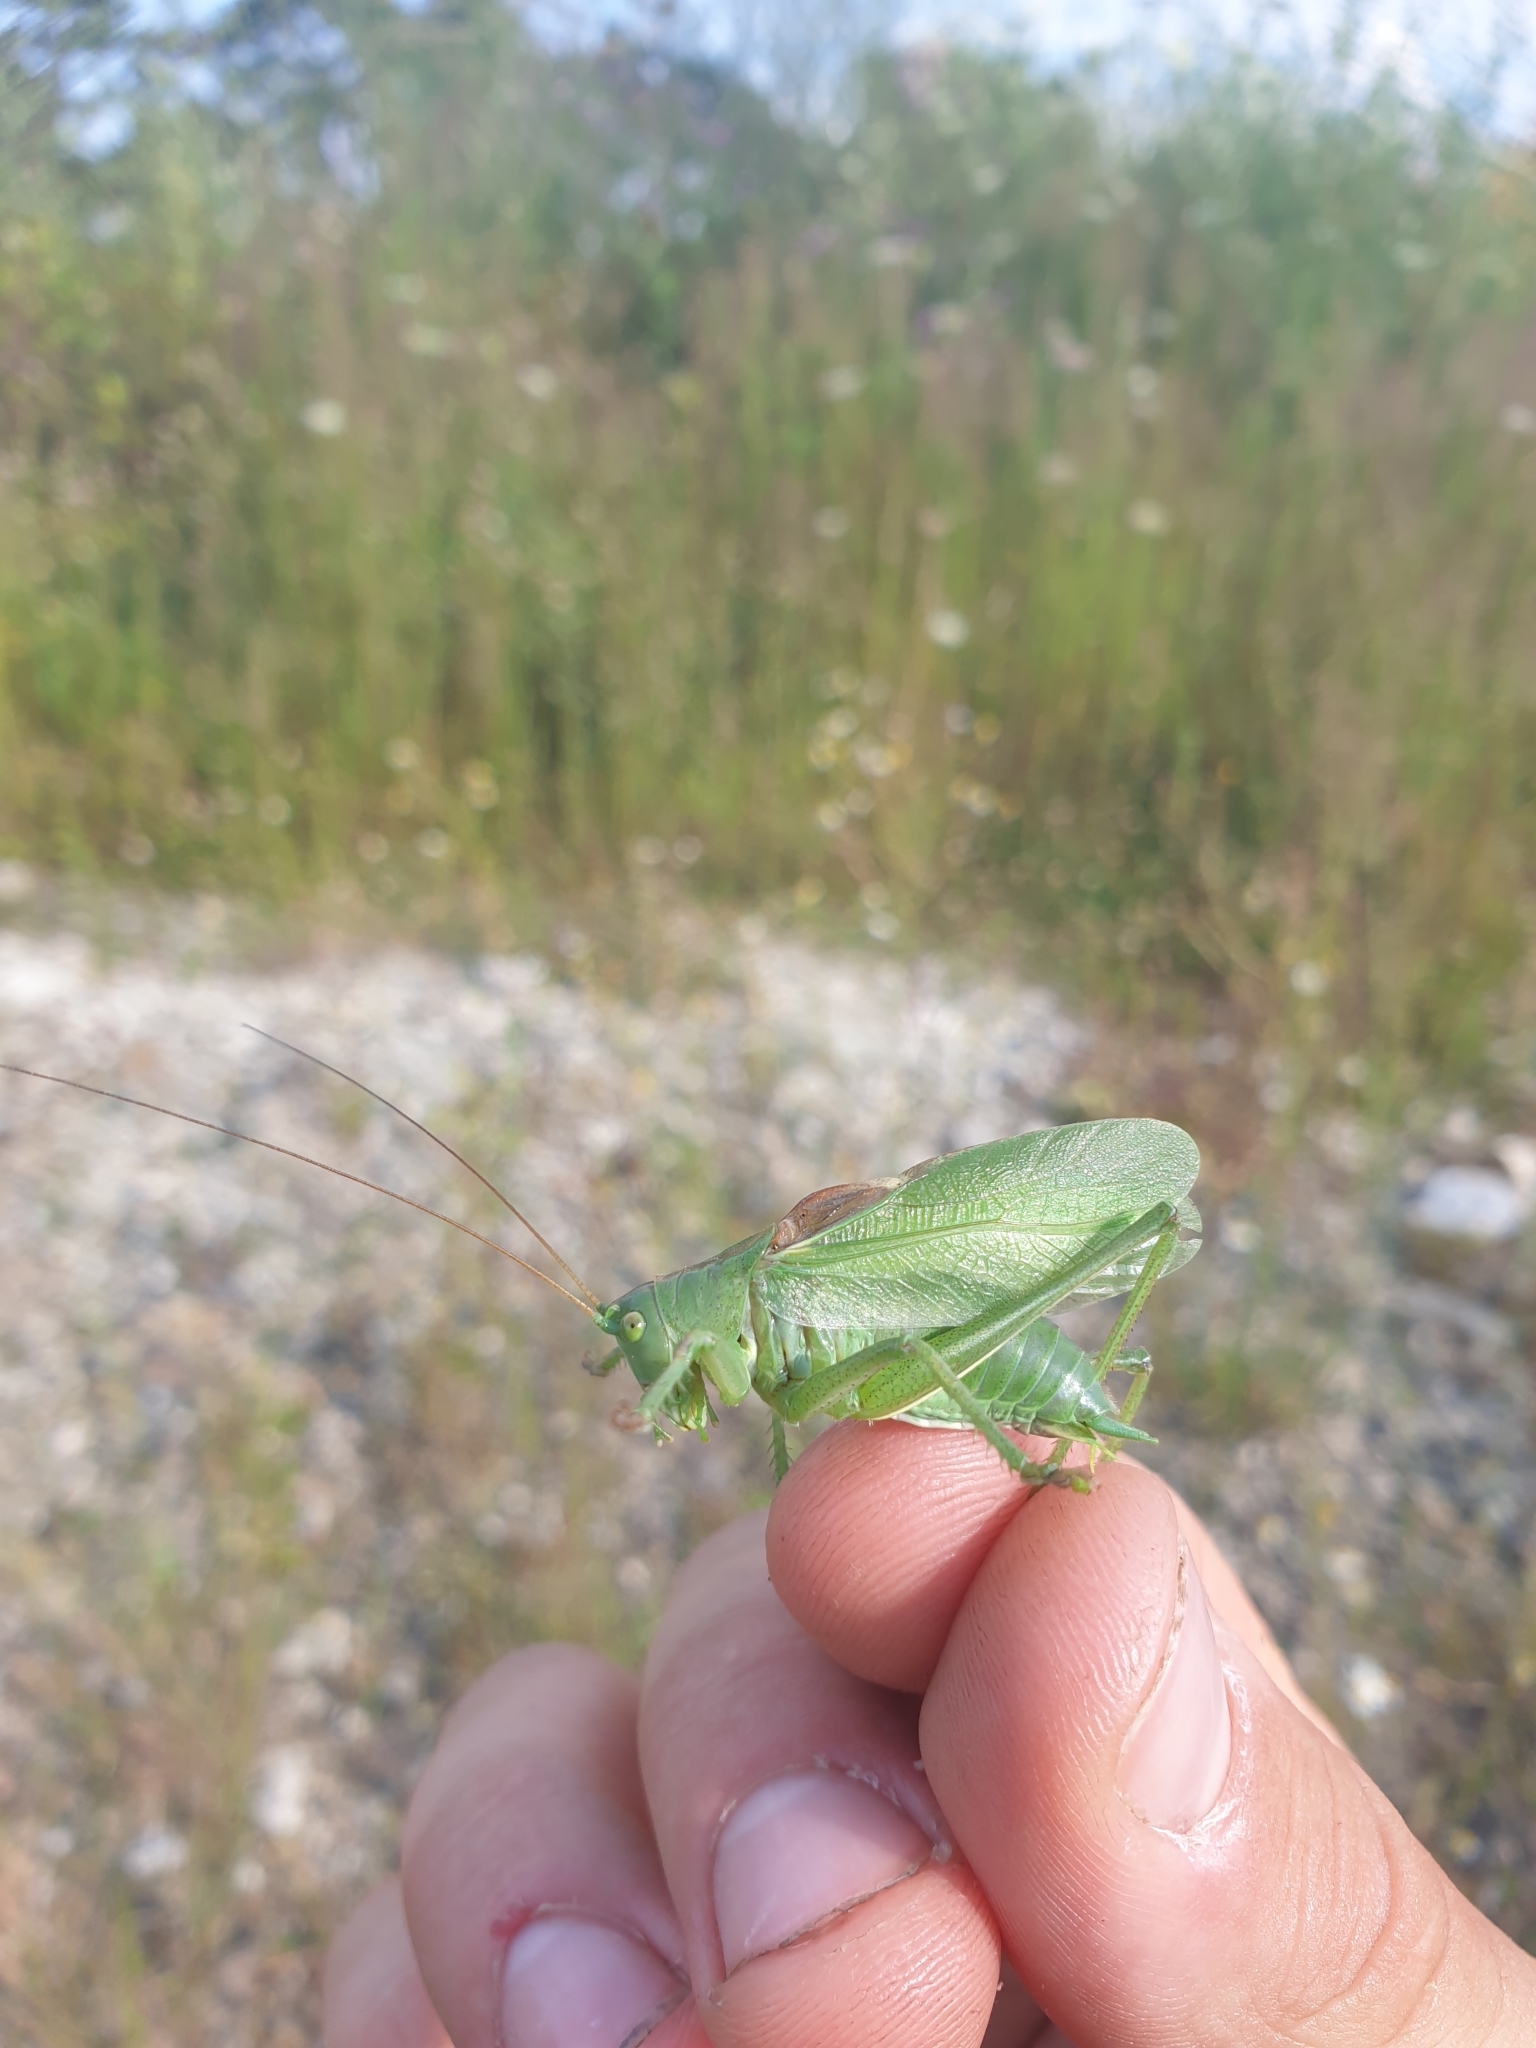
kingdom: Animalia
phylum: Arthropoda
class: Insecta
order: Orthoptera
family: Tettigoniidae
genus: Tettigonia
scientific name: Tettigonia cantans
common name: Upland green bush-cricket
